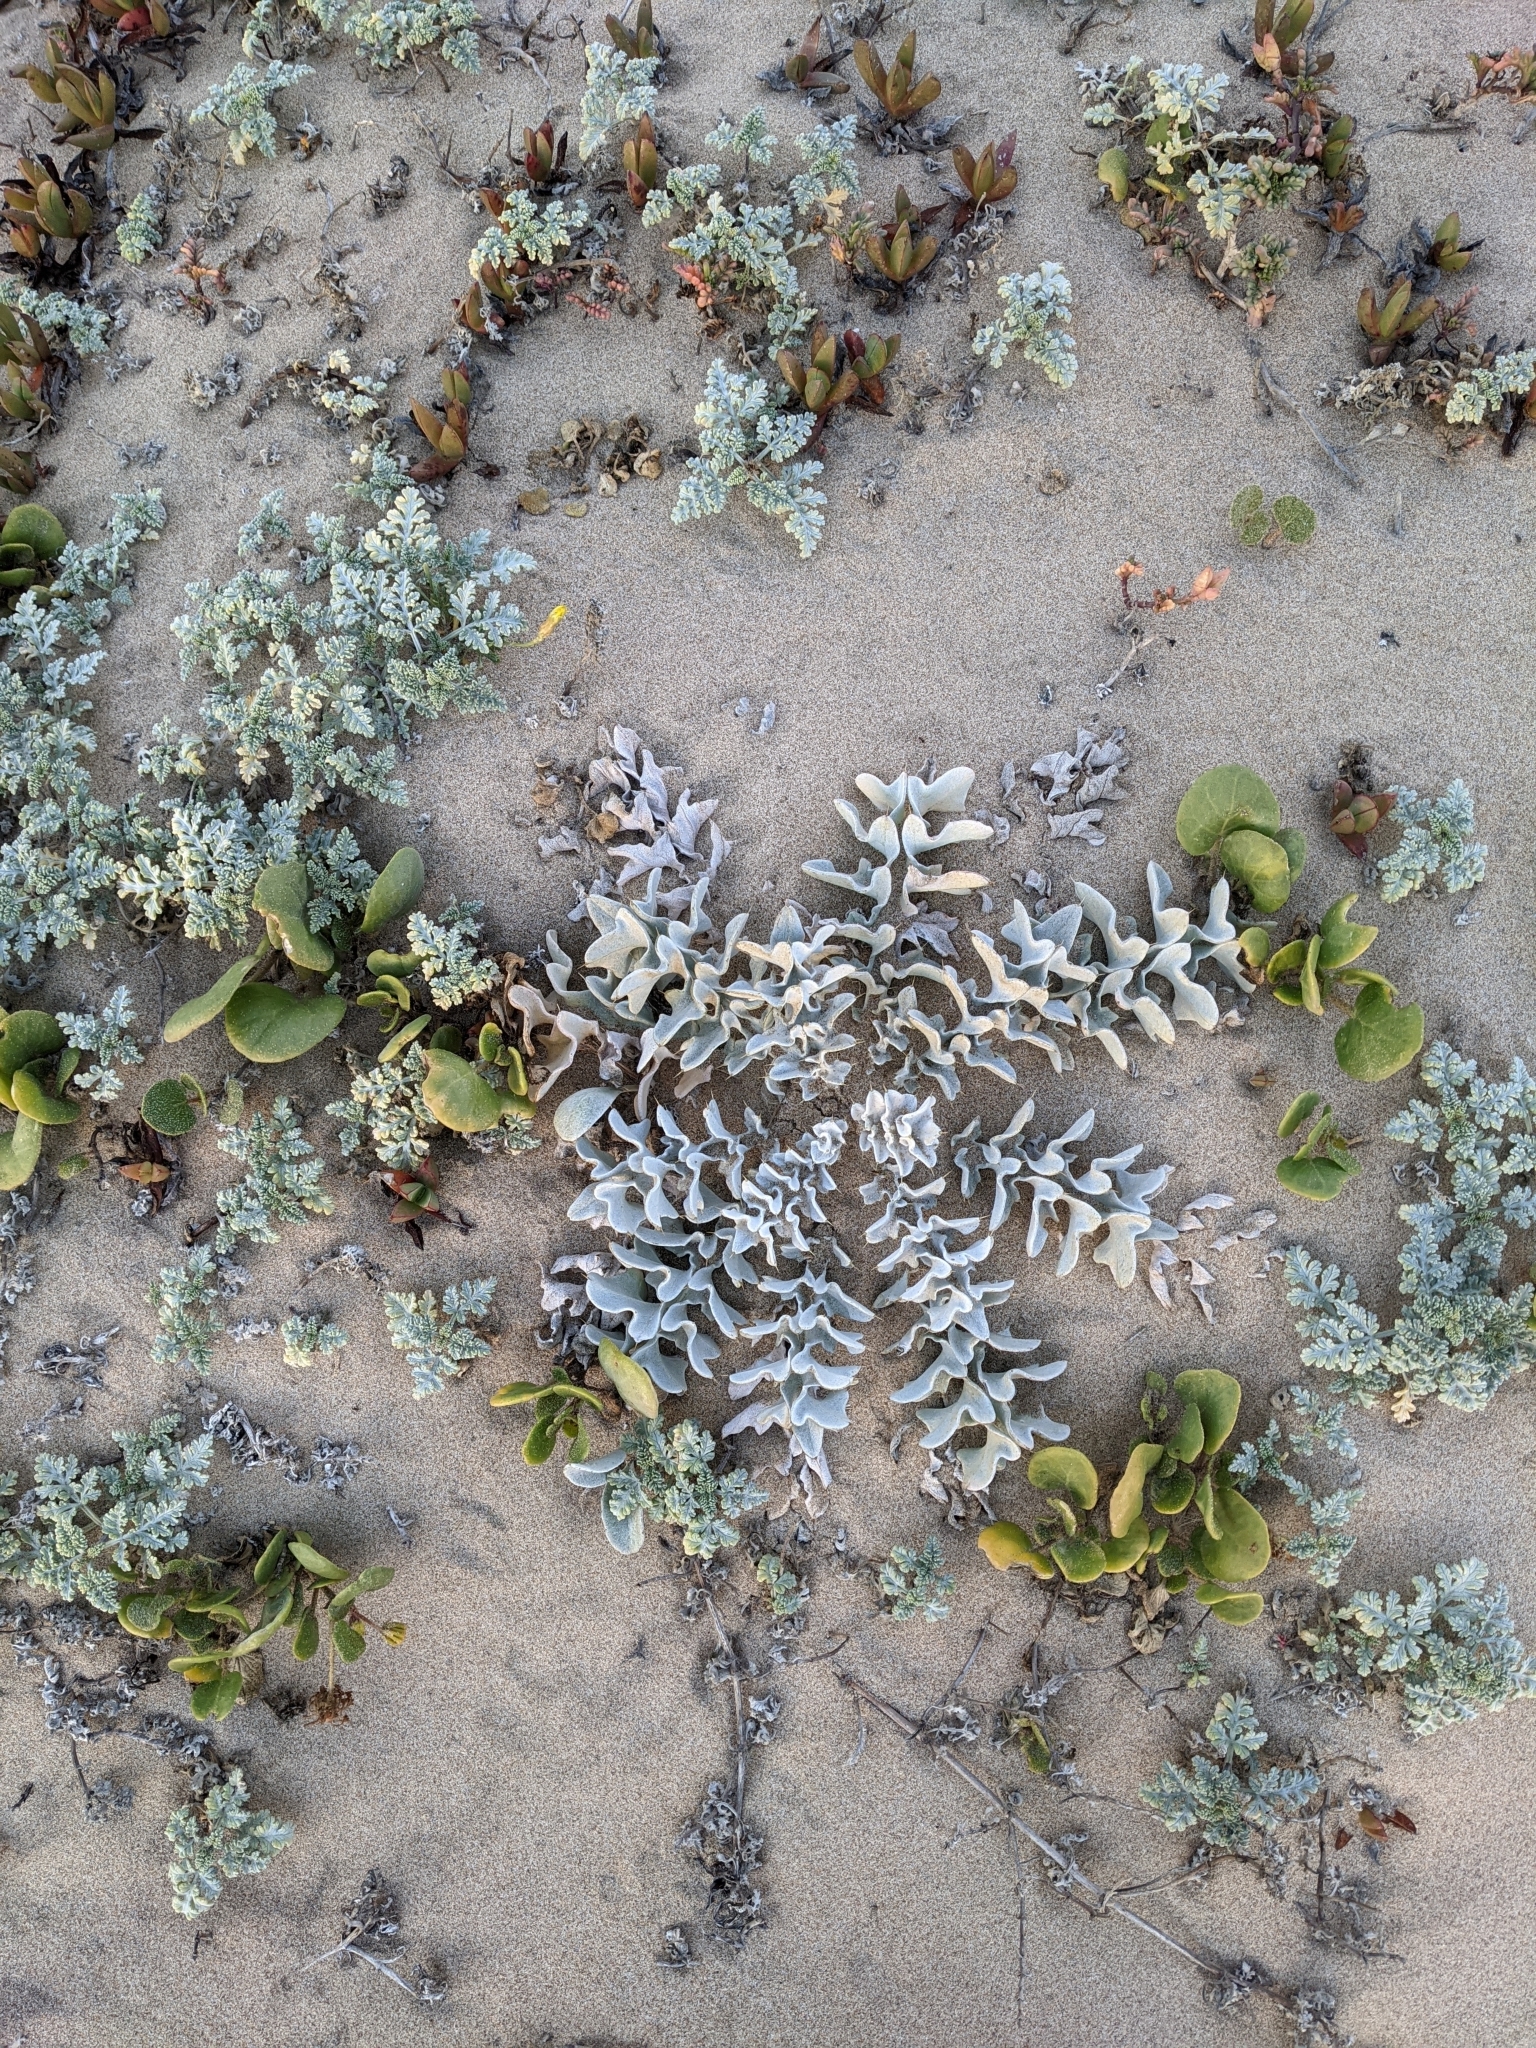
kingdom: Plantae
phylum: Tracheophyta
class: Magnoliopsida
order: Asterales
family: Asteraceae
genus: Cirsium
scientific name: Cirsium rhothophilum
